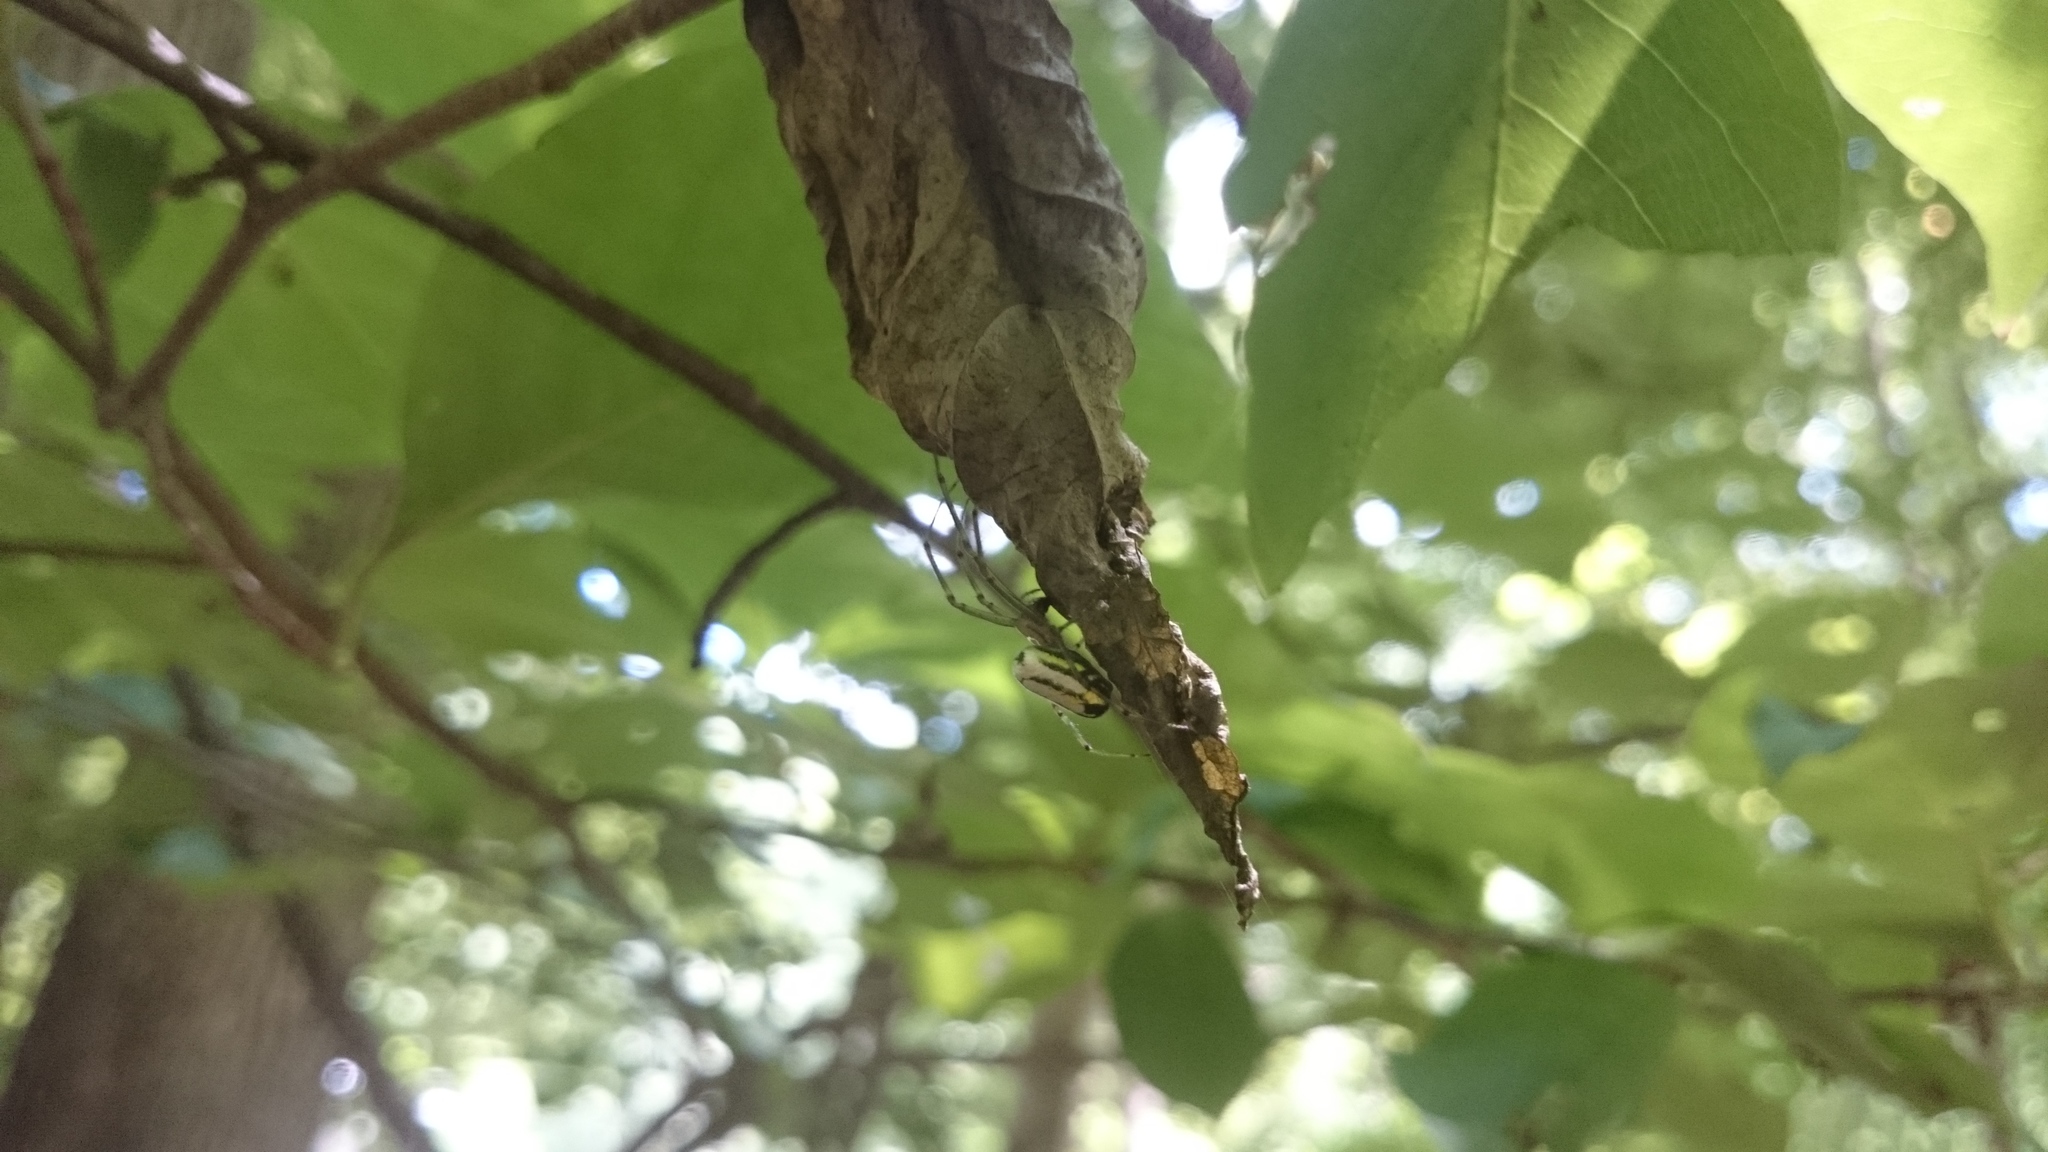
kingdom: Animalia
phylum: Arthropoda
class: Arachnida
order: Araneae
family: Tetragnathidae
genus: Leucauge
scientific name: Leucauge venusta
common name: Longjawed orb weavers
